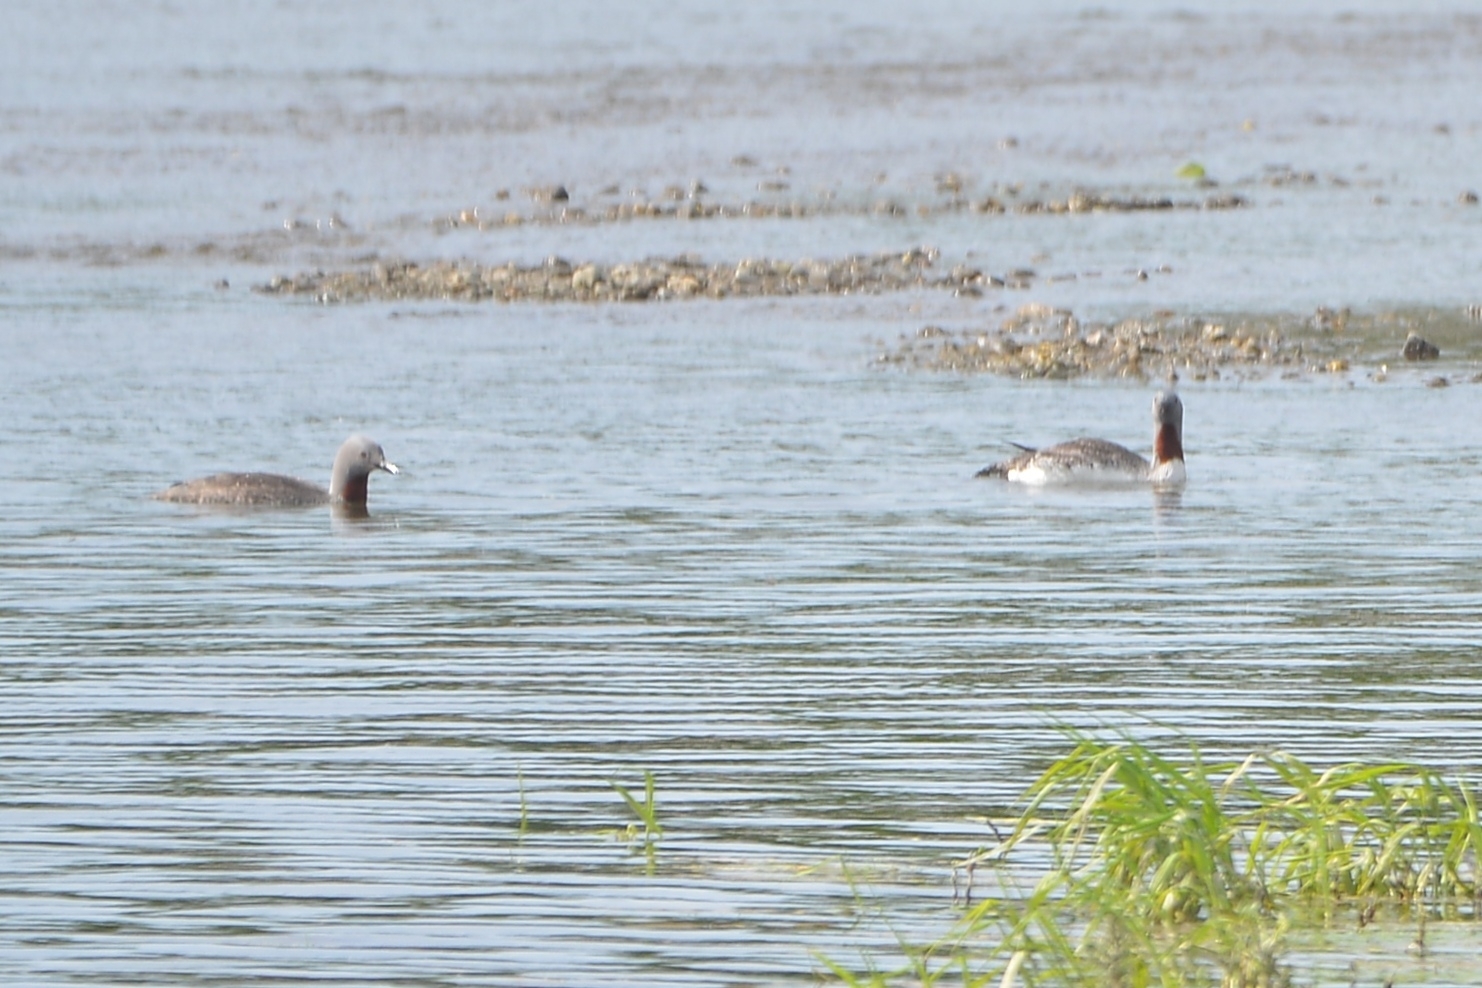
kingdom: Animalia
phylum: Chordata
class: Aves
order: Gaviiformes
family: Gaviidae
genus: Gavia
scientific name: Gavia stellata
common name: Red-throated loon
